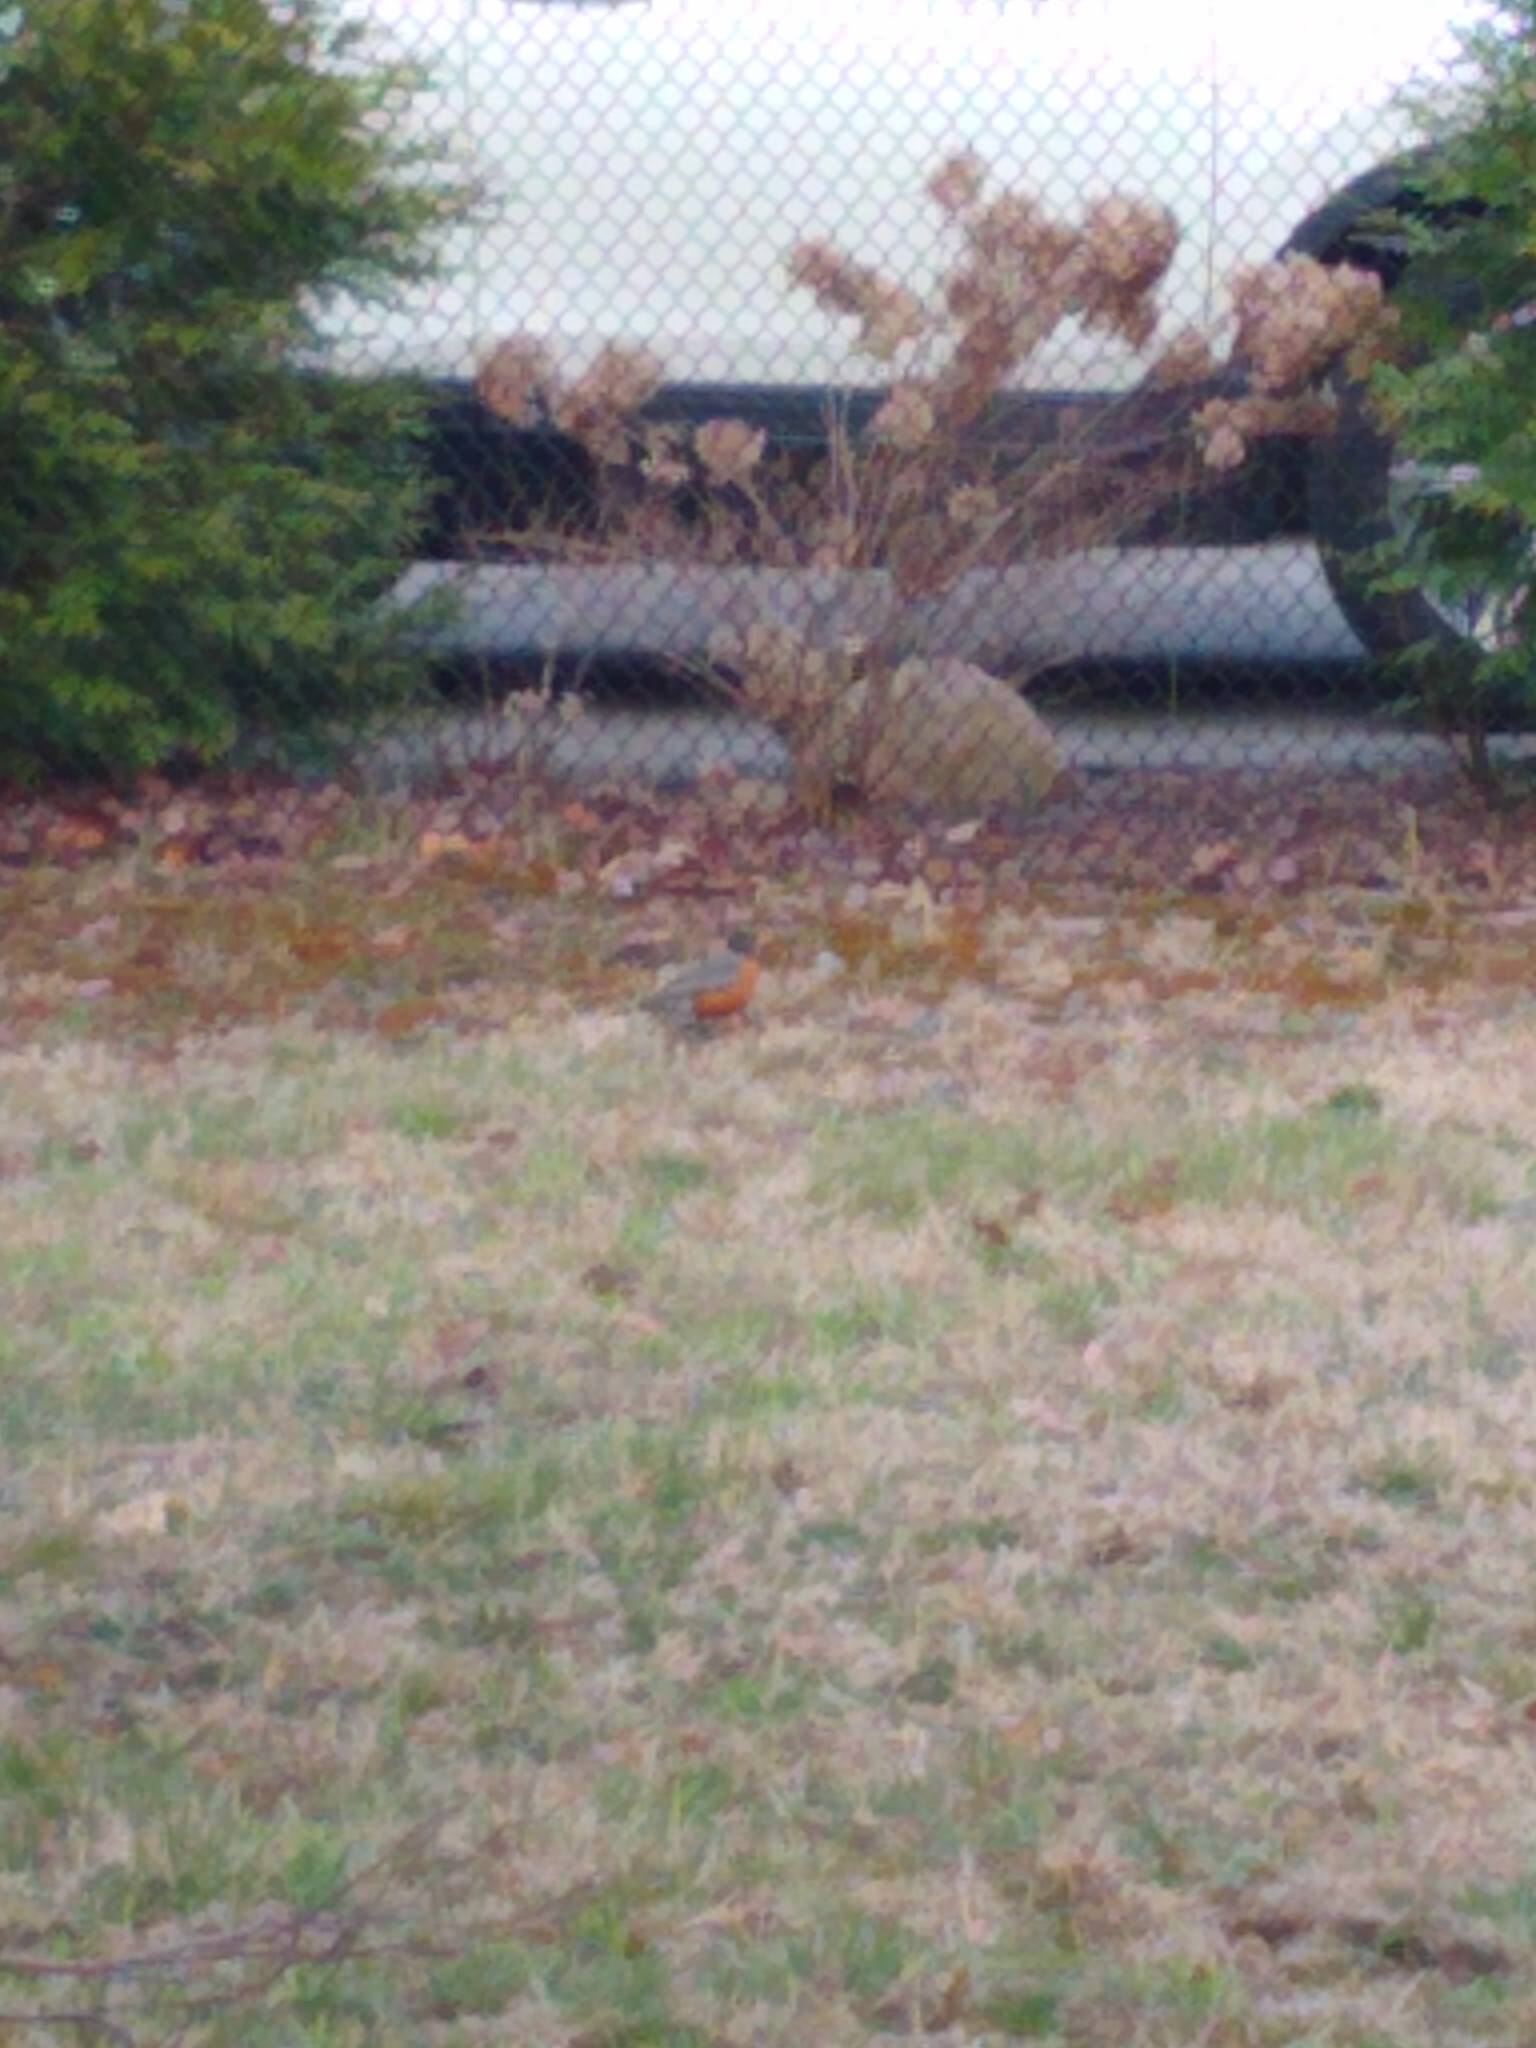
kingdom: Animalia
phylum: Chordata
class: Aves
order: Passeriformes
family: Turdidae
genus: Turdus
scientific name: Turdus migratorius
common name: American robin
